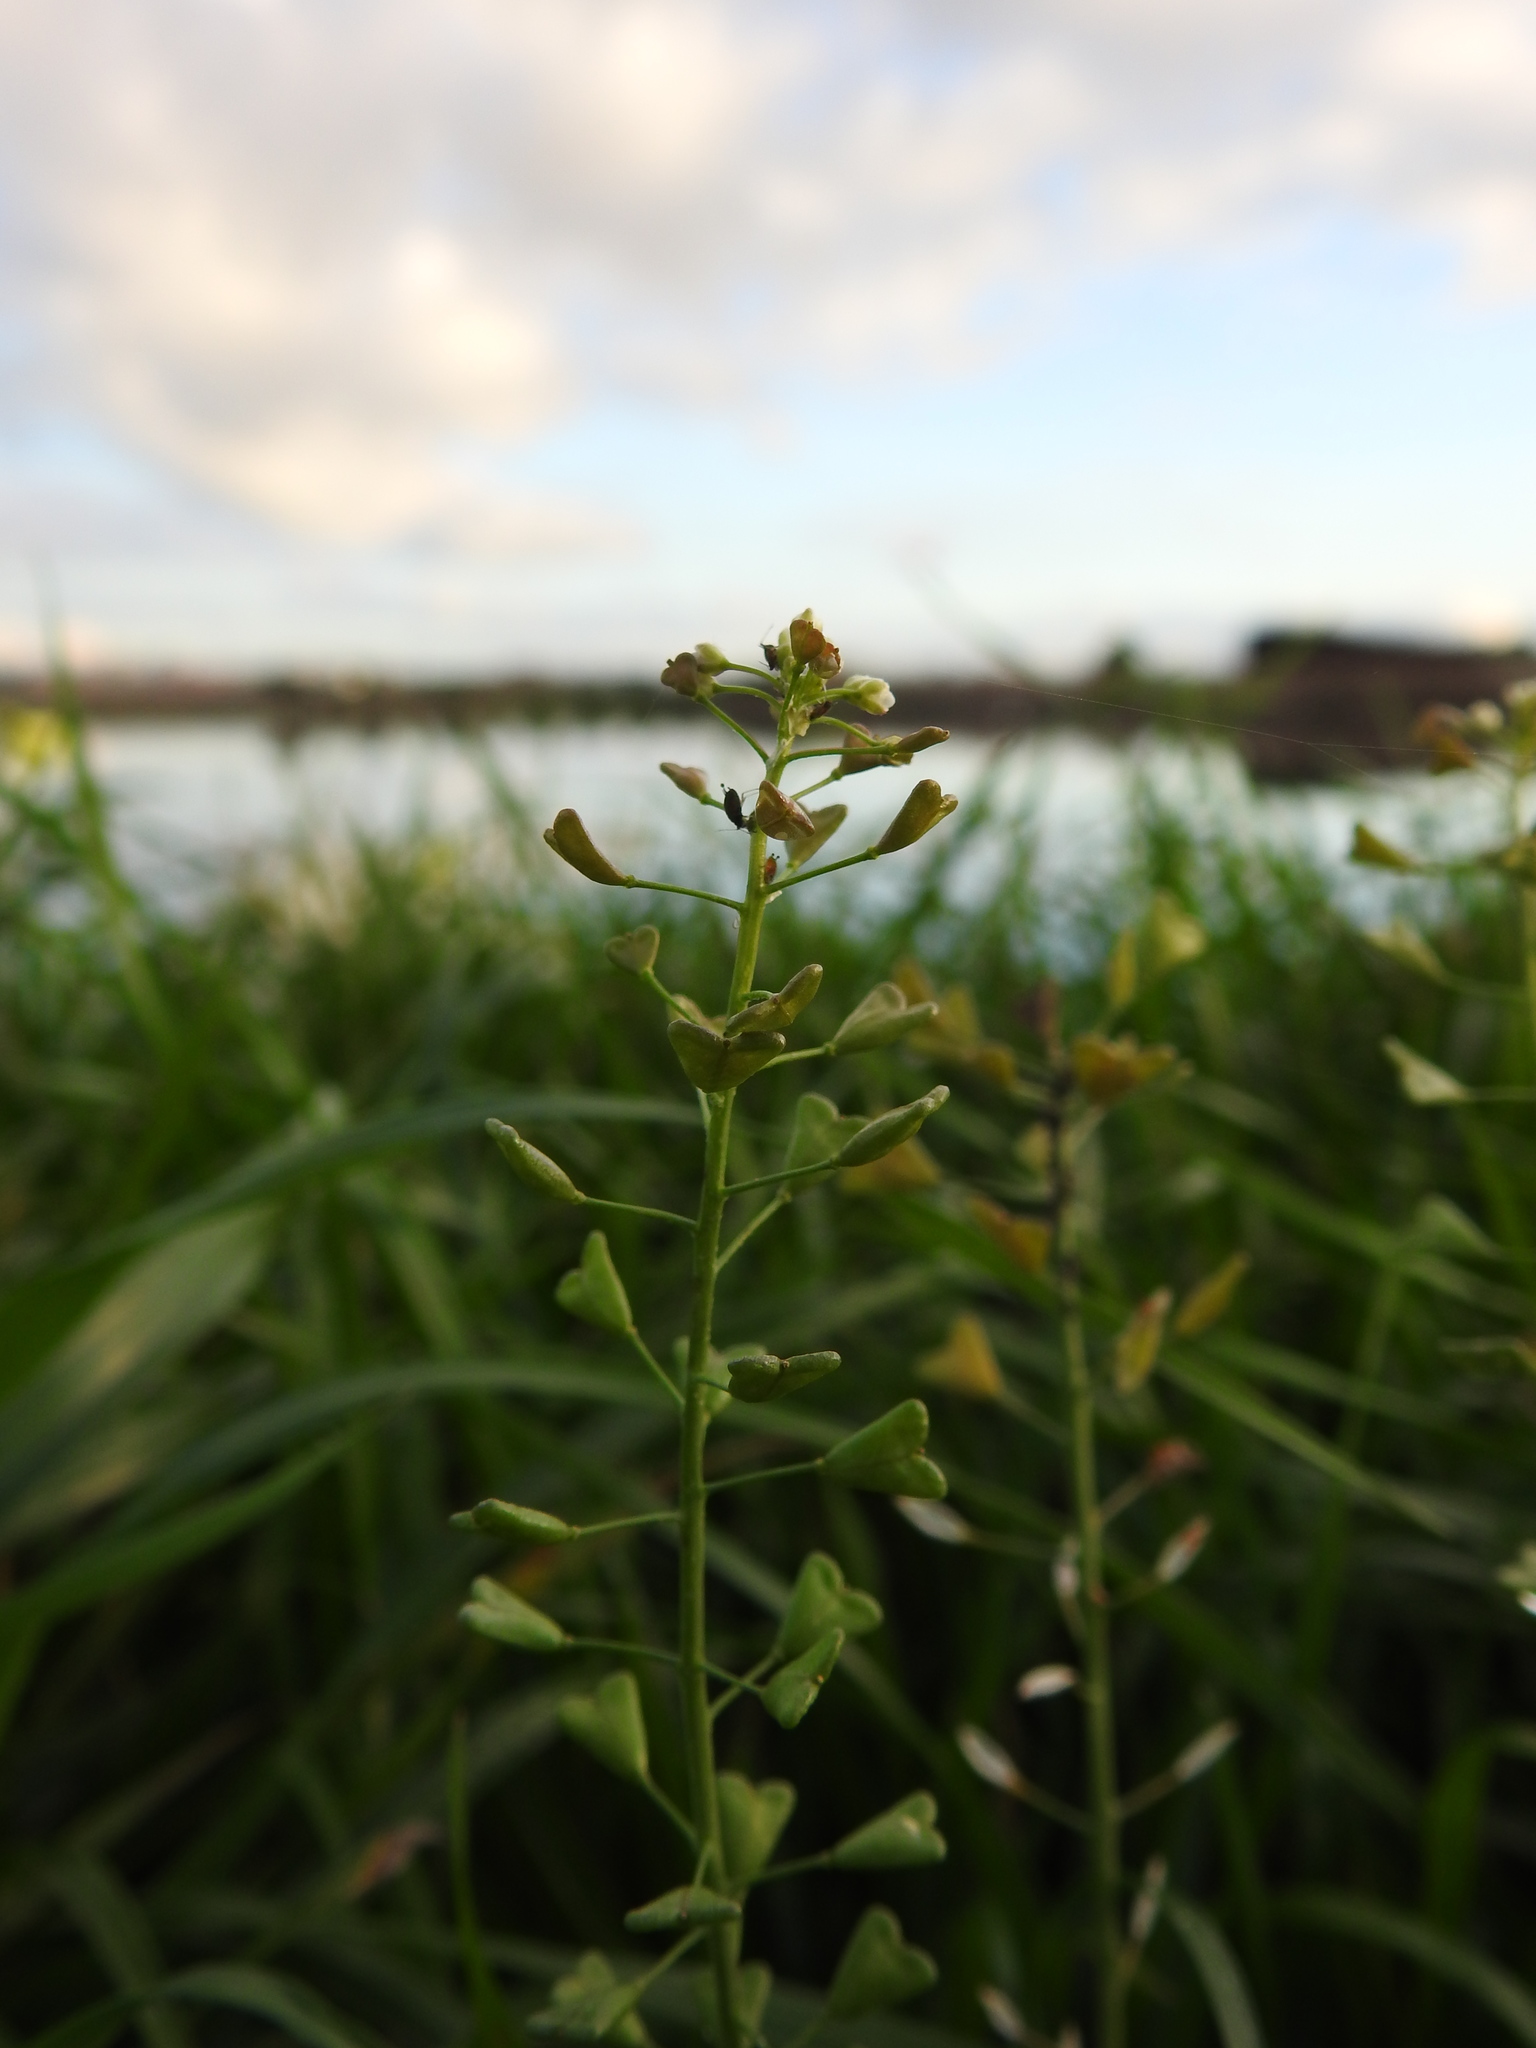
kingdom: Plantae
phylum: Tracheophyta
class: Magnoliopsida
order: Brassicales
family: Brassicaceae
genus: Capsella
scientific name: Capsella bursa-pastoris
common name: Shepherd's purse
